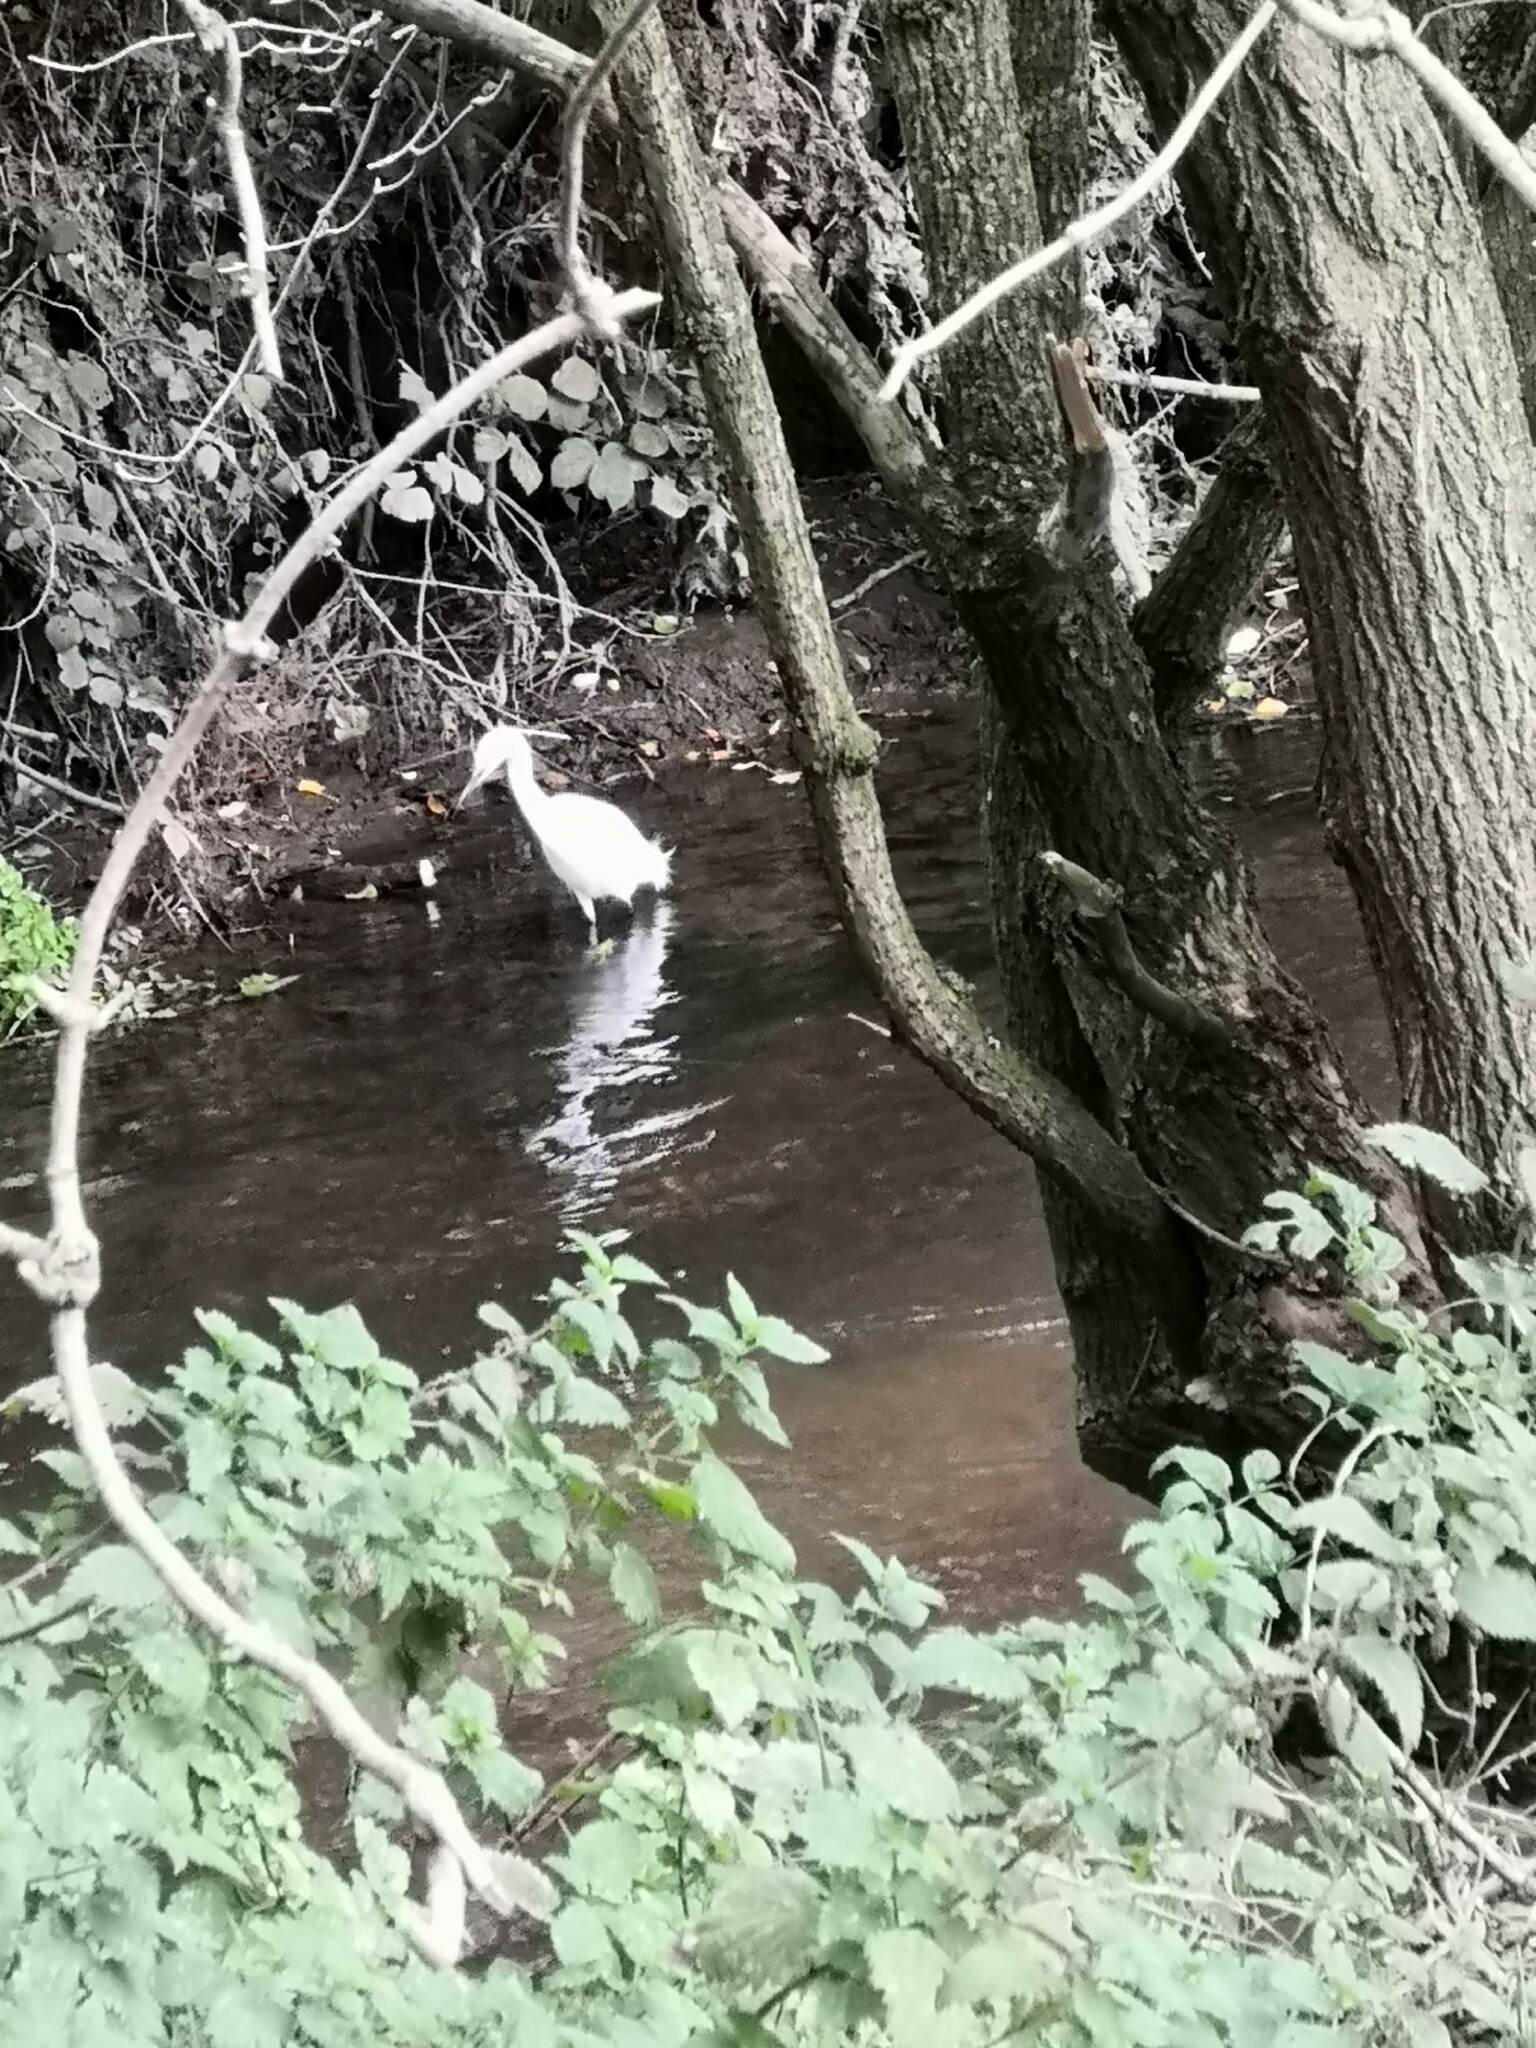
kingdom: Animalia
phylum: Chordata
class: Aves
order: Pelecaniformes
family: Ardeidae
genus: Egretta
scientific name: Egretta garzetta
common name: Little egret
